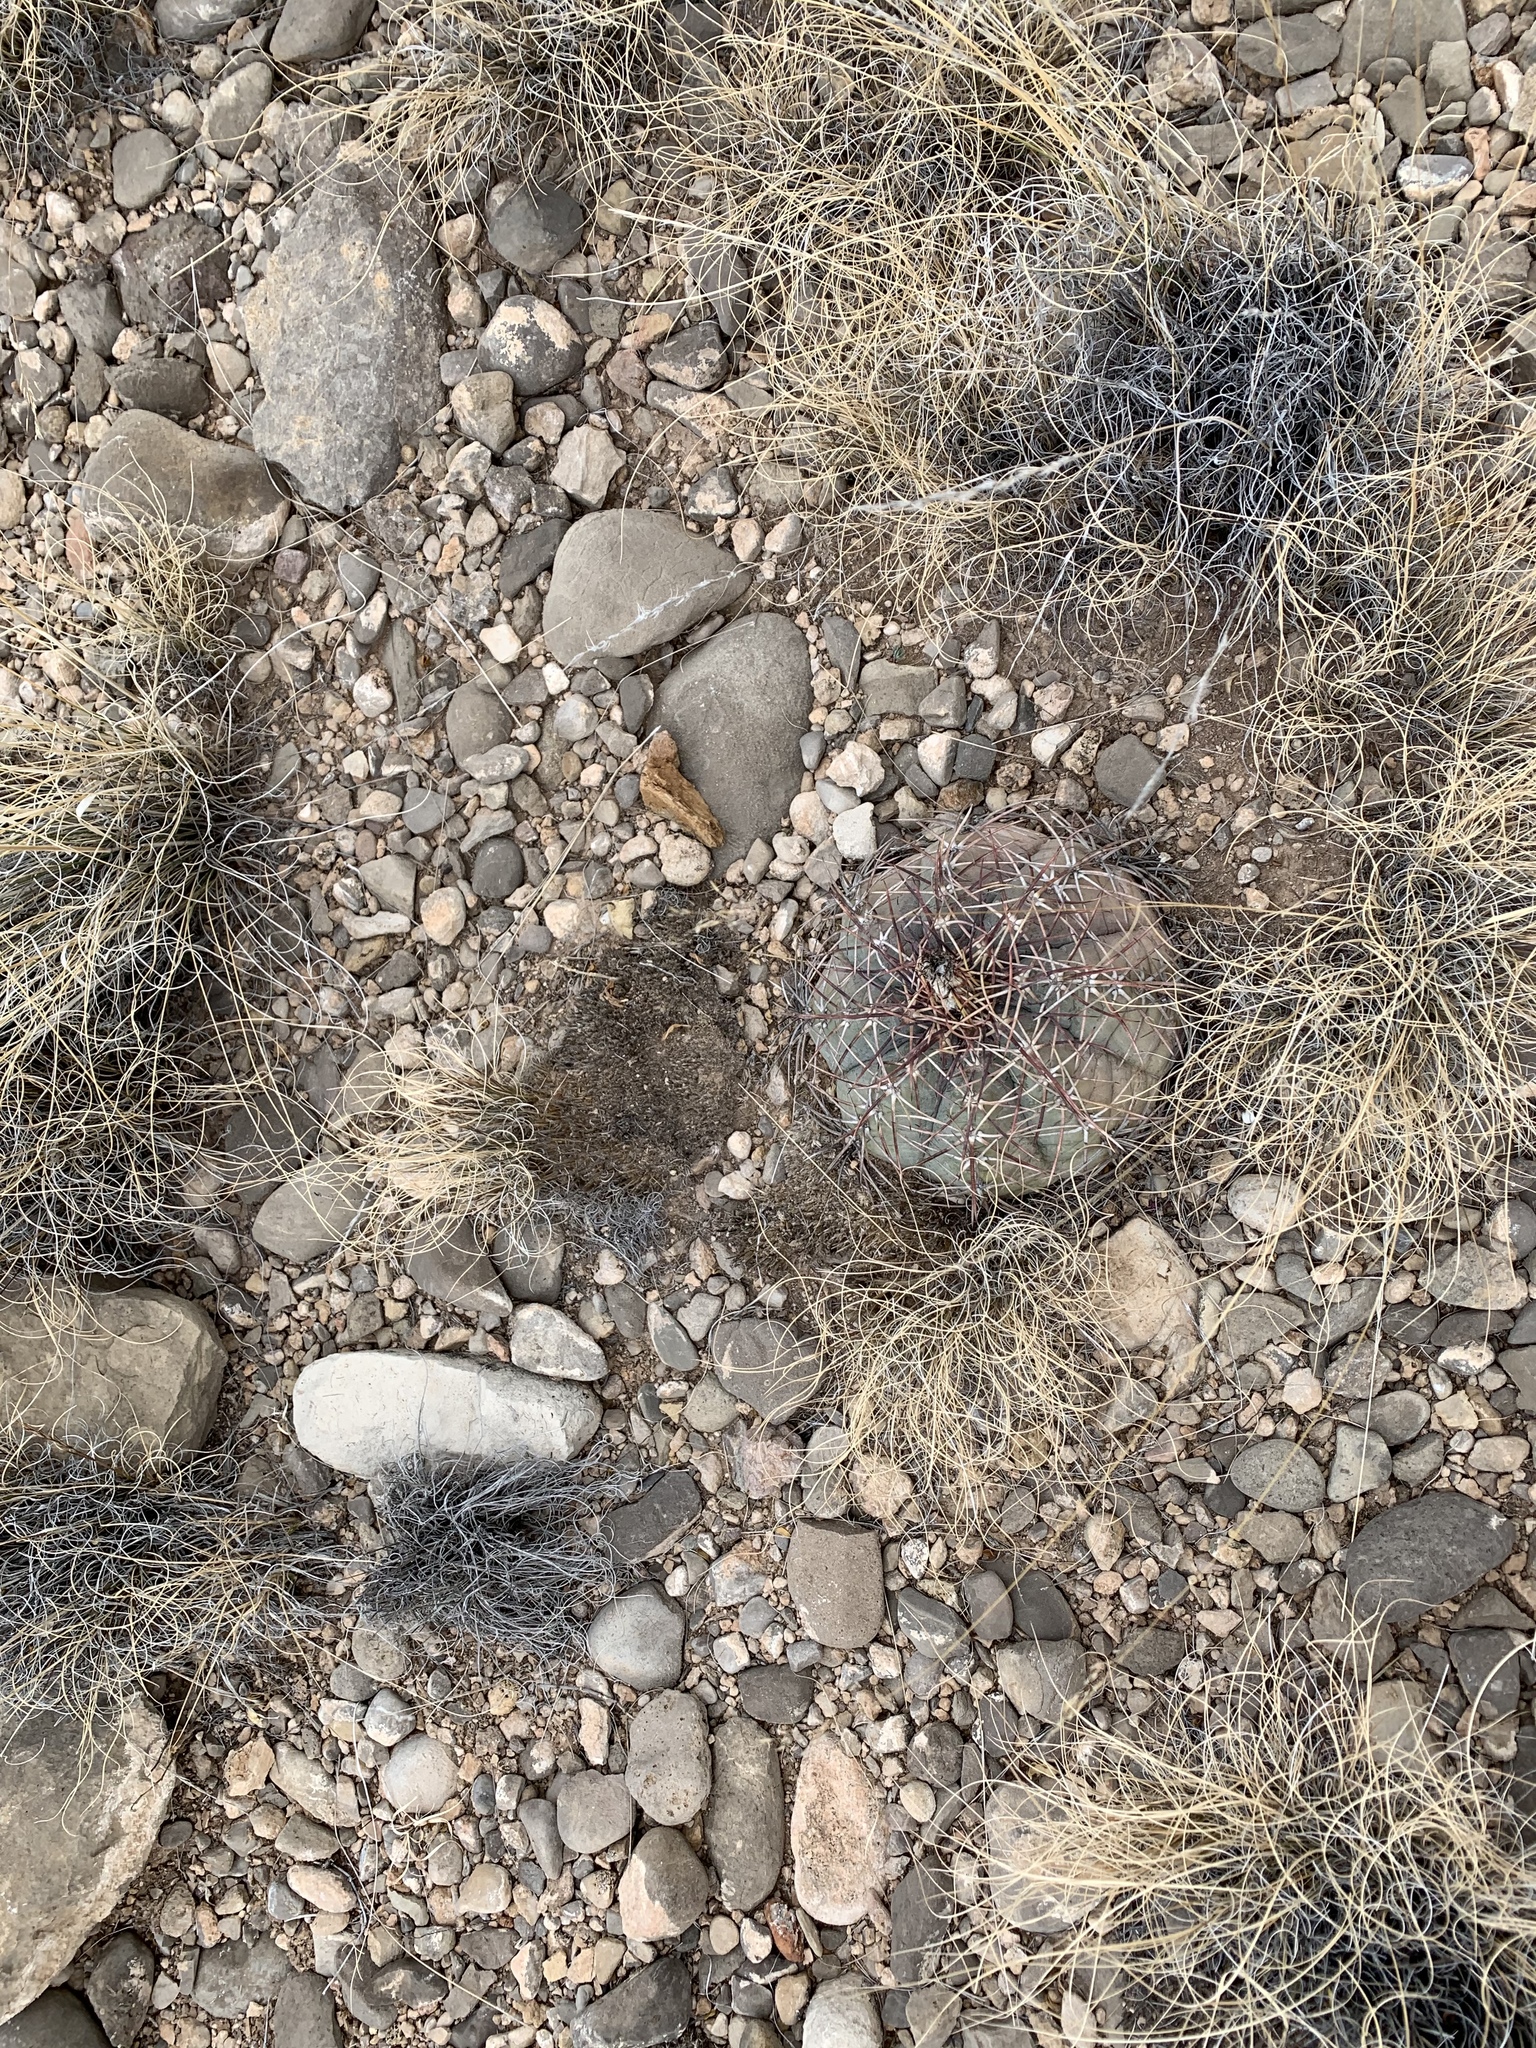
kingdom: Plantae
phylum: Tracheophyta
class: Magnoliopsida
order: Caryophyllales
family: Cactaceae
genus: Echinocactus
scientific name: Echinocactus horizonthalonius
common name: Devilshead
